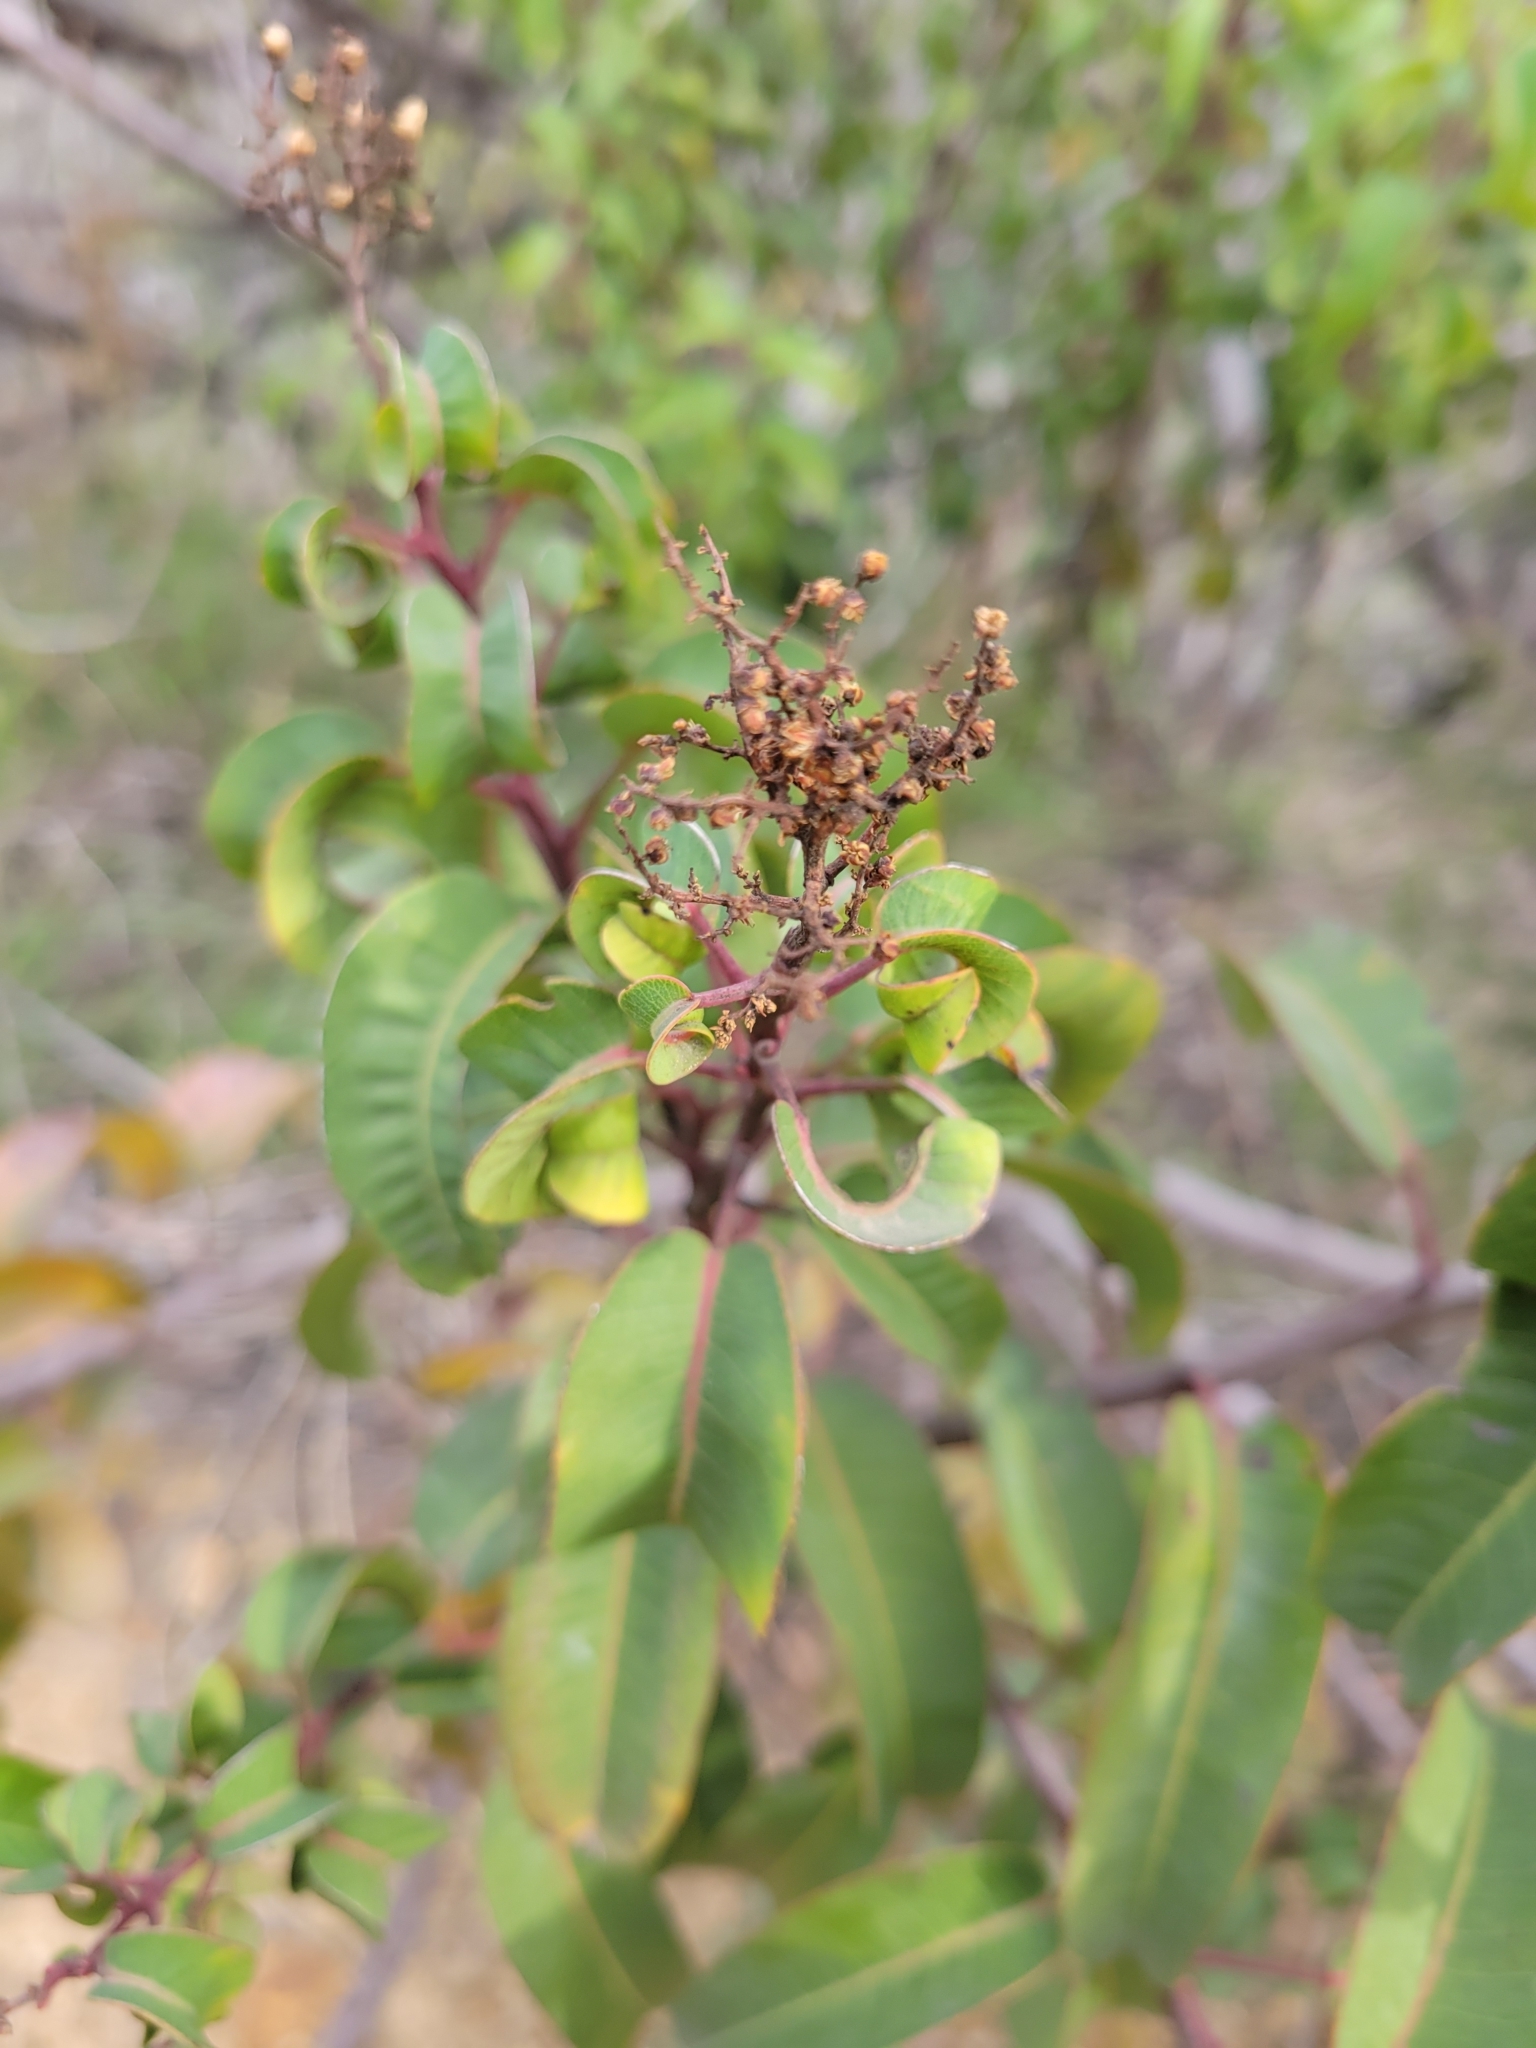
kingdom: Plantae
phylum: Tracheophyta
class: Magnoliopsida
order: Sapindales
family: Anacardiaceae
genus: Malosma
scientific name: Malosma laurina
